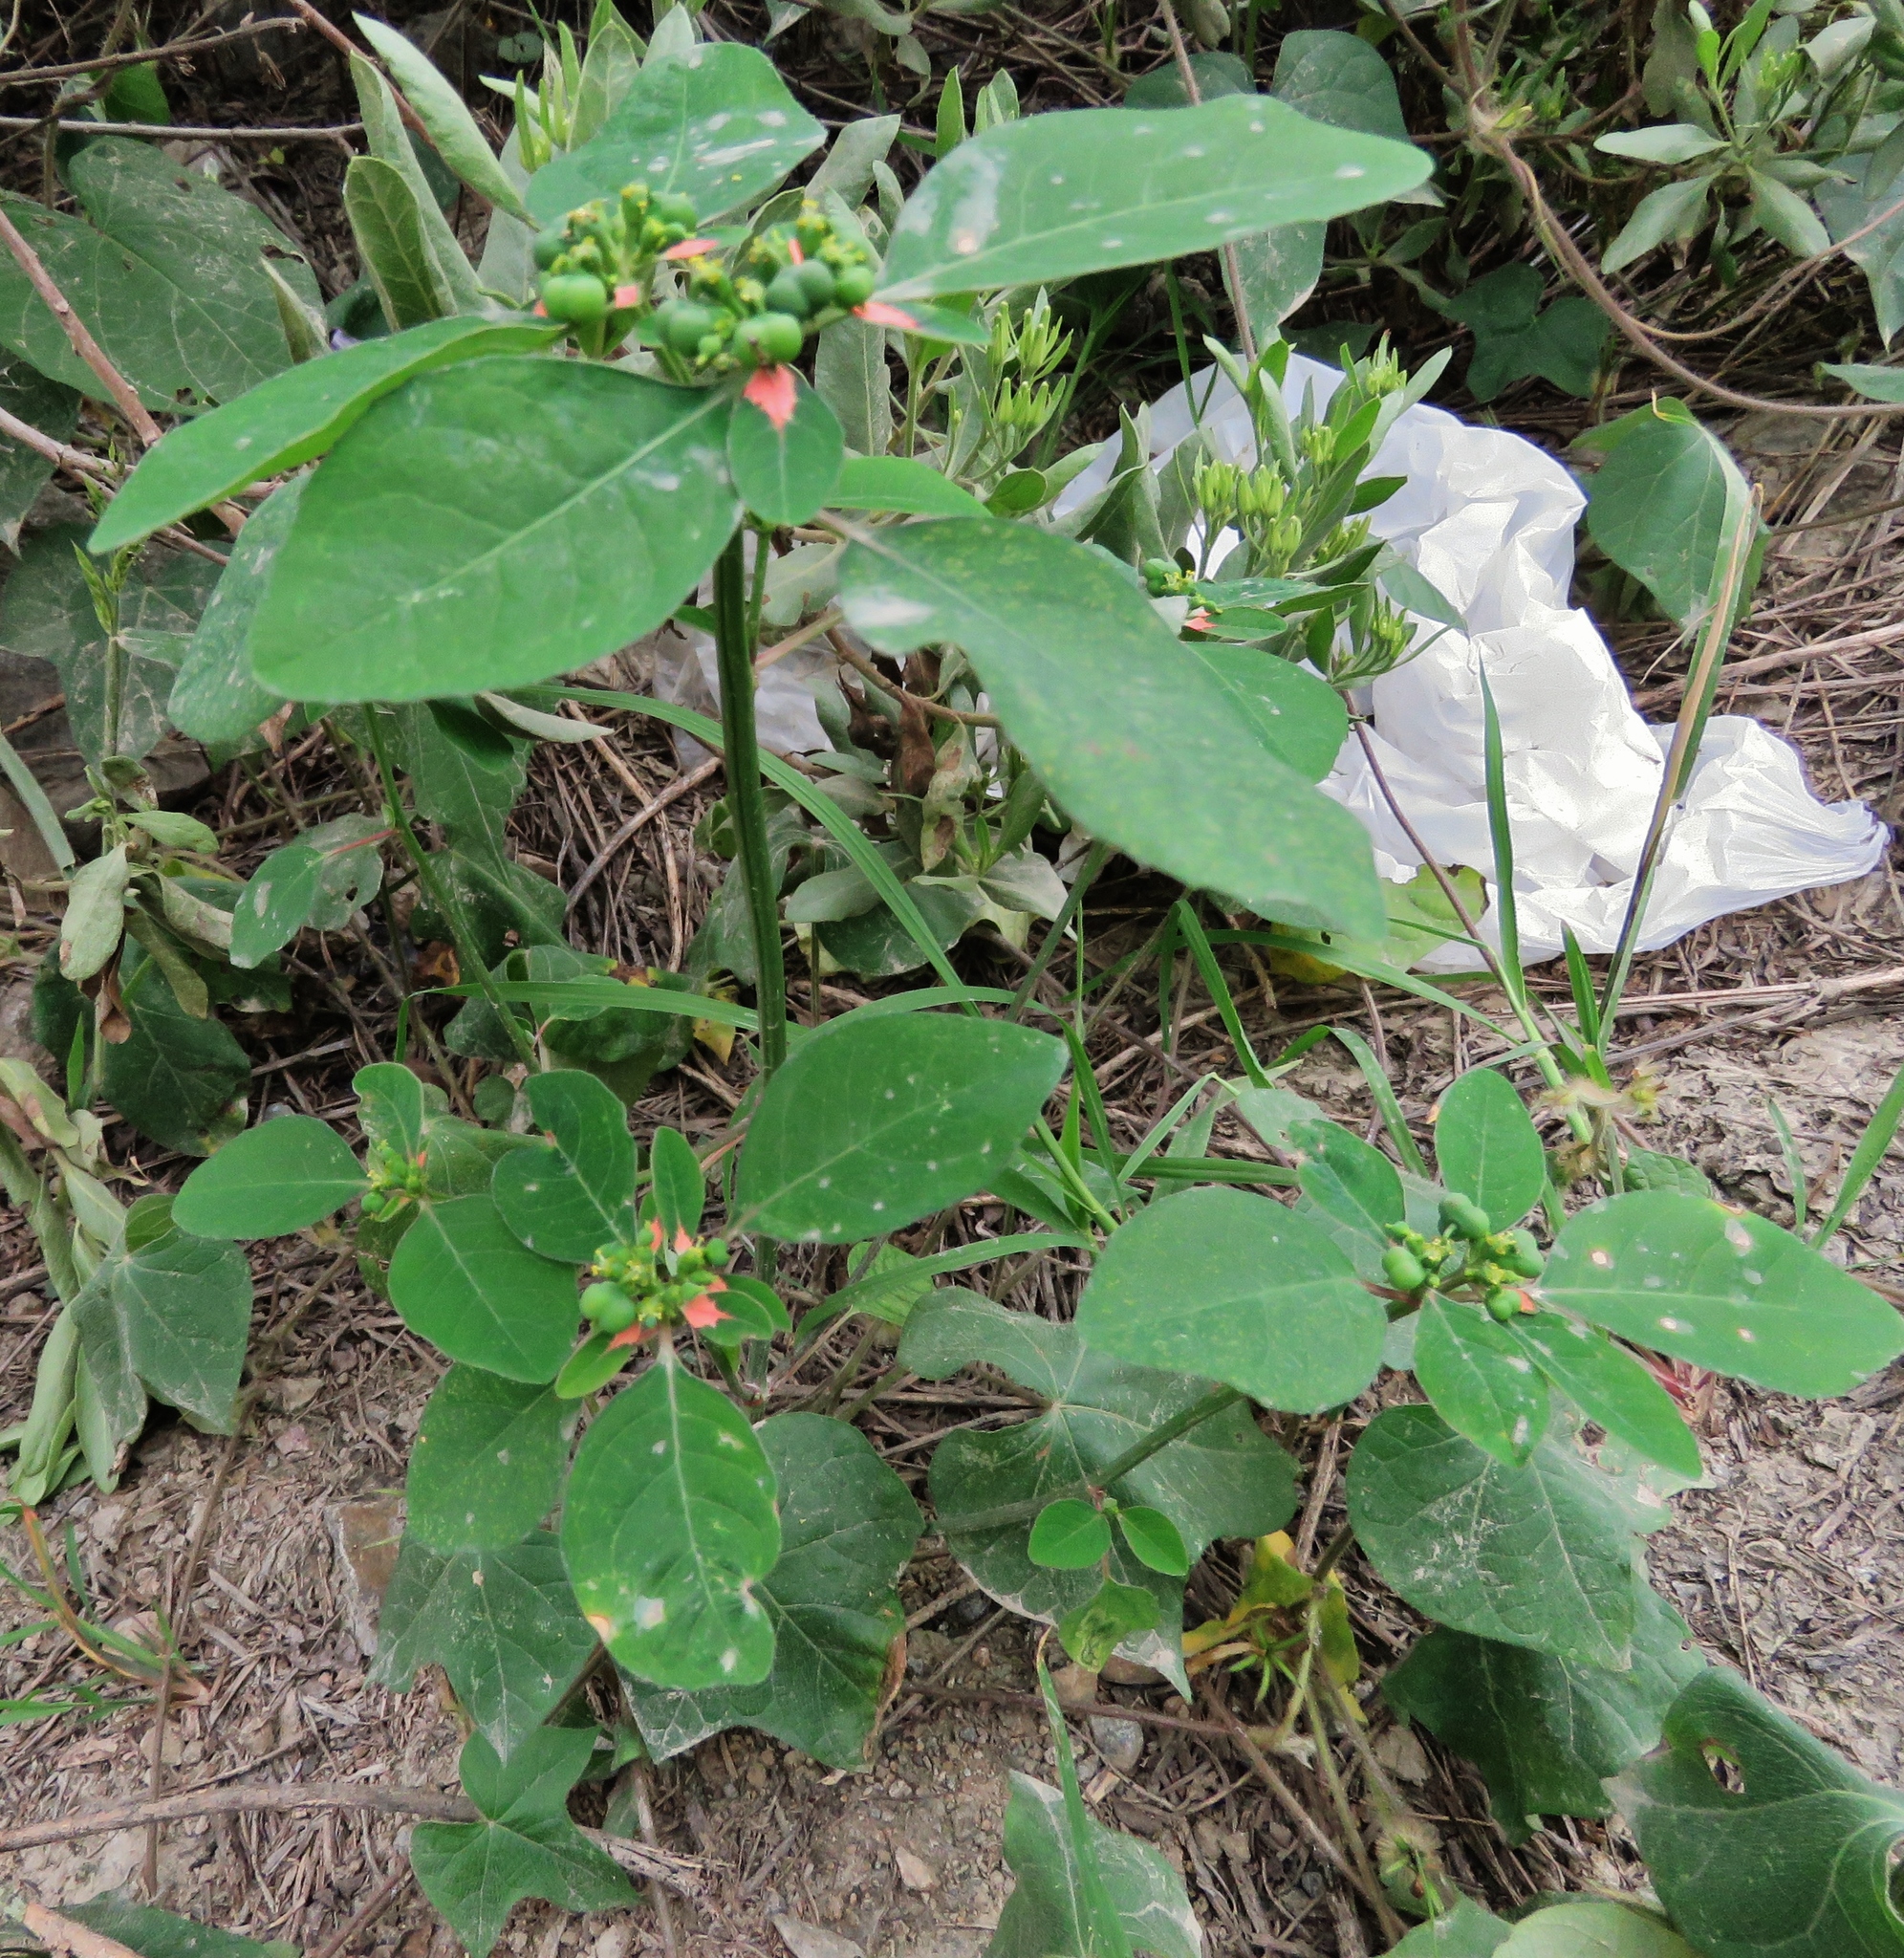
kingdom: Plantae
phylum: Tracheophyta
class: Magnoliopsida
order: Malpighiales
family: Euphorbiaceae
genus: Euphorbia
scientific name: Euphorbia elliptica
